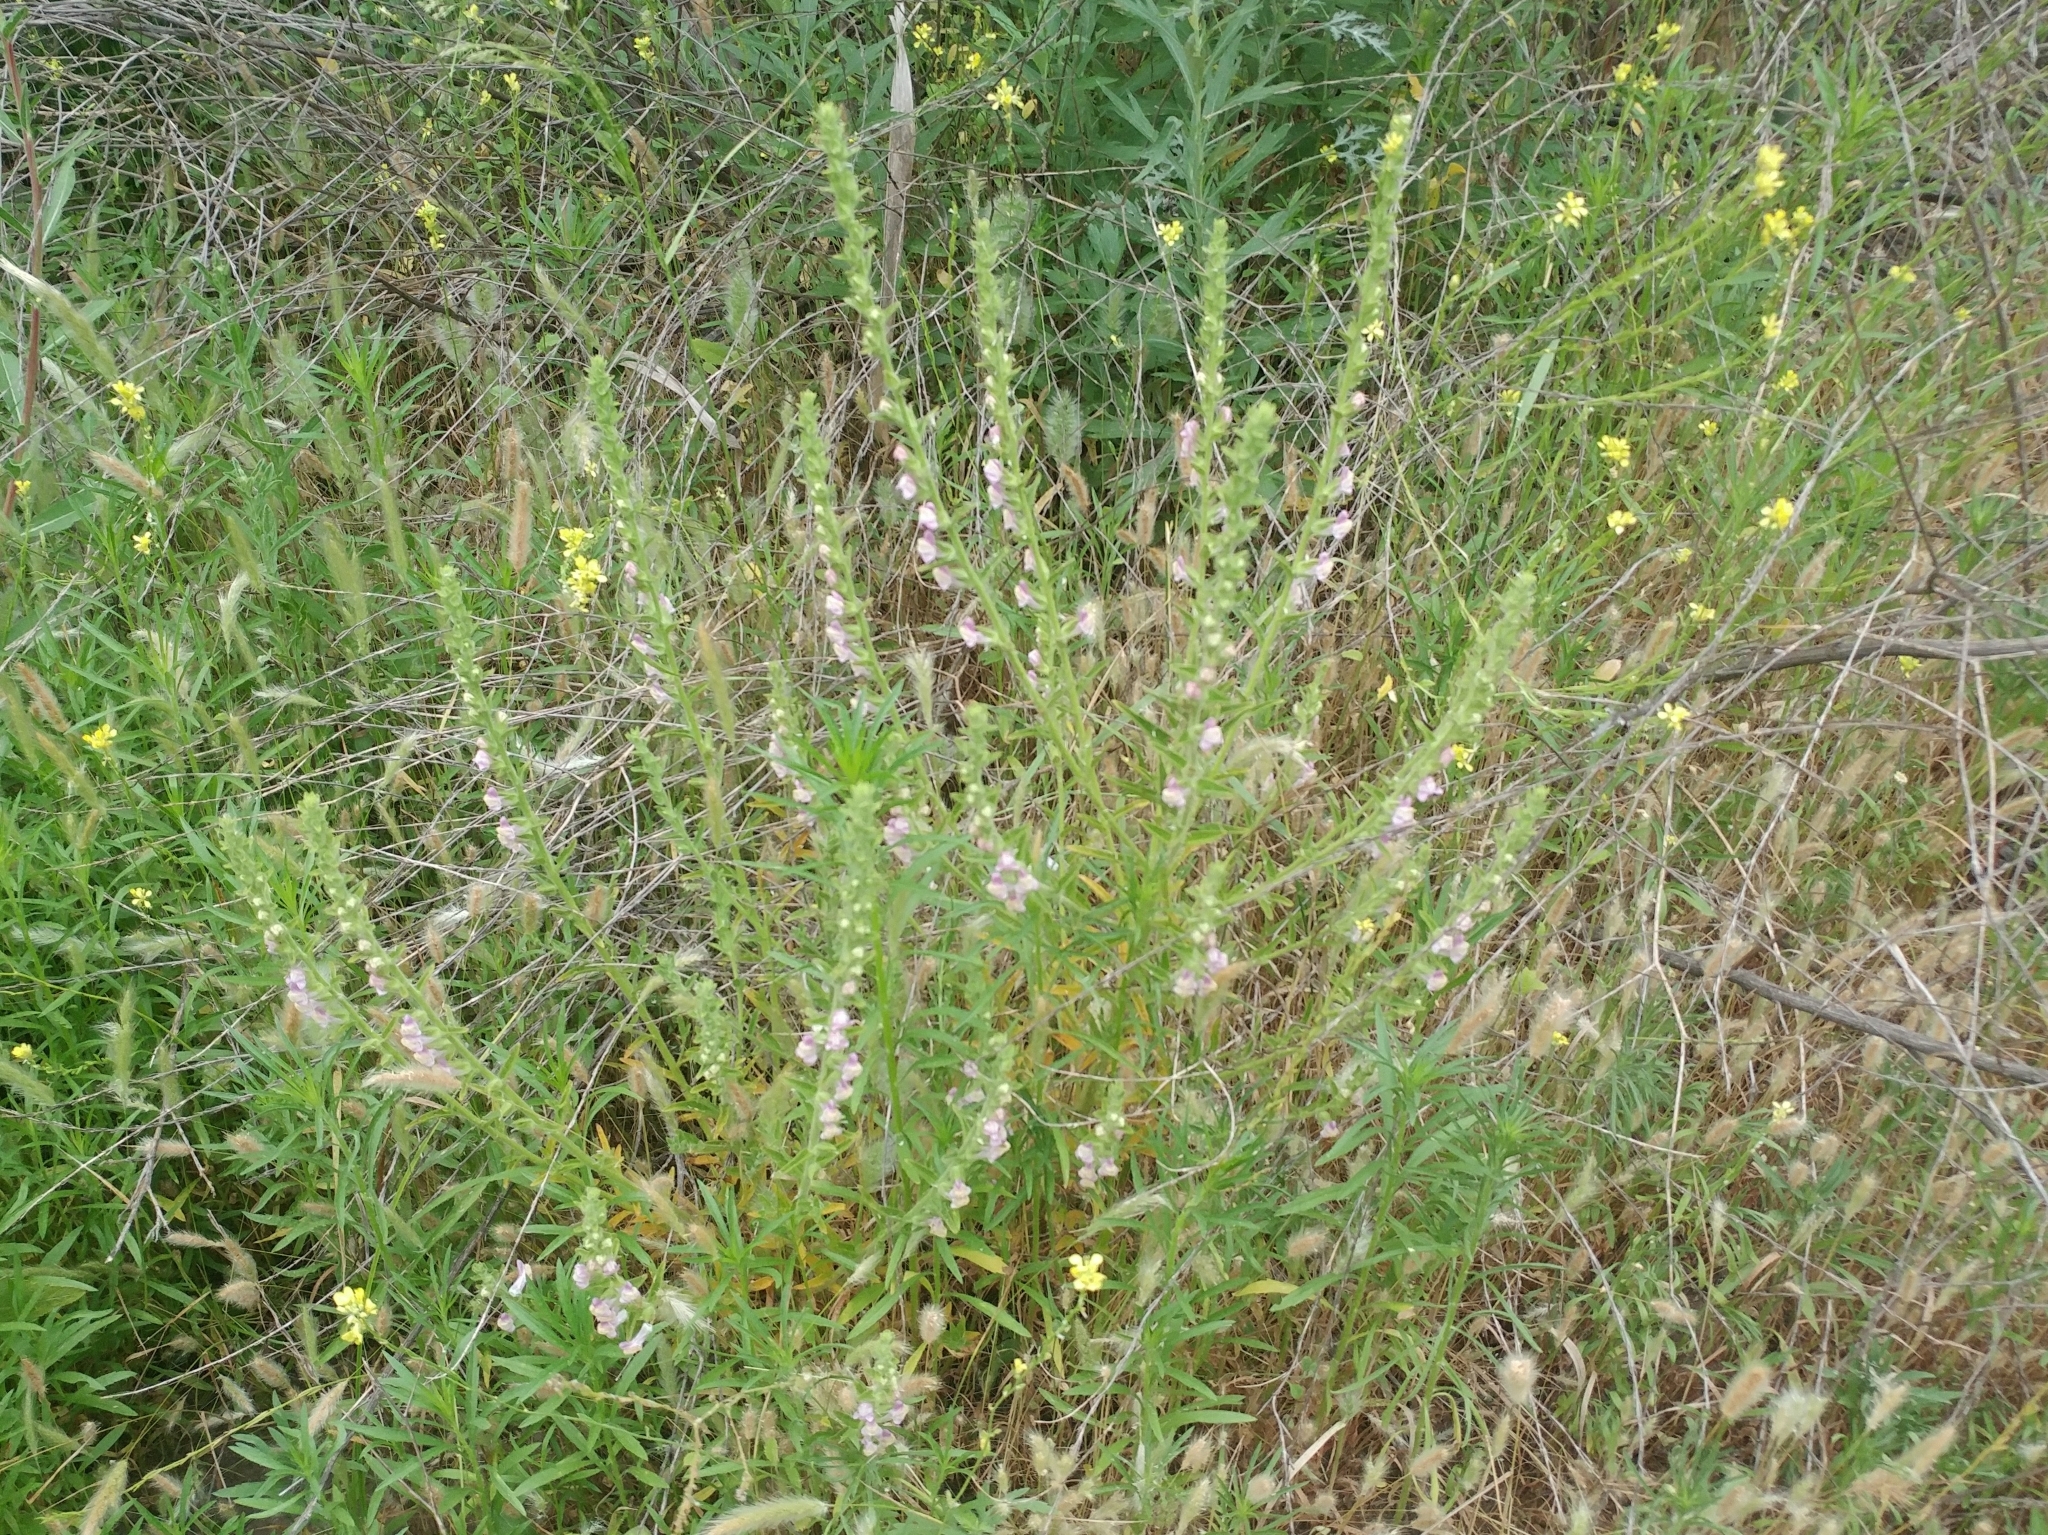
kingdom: Plantae
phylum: Tracheophyta
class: Magnoliopsida
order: Lamiales
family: Plantaginaceae
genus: Sairocarpus
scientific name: Sairocarpus multiflorus
